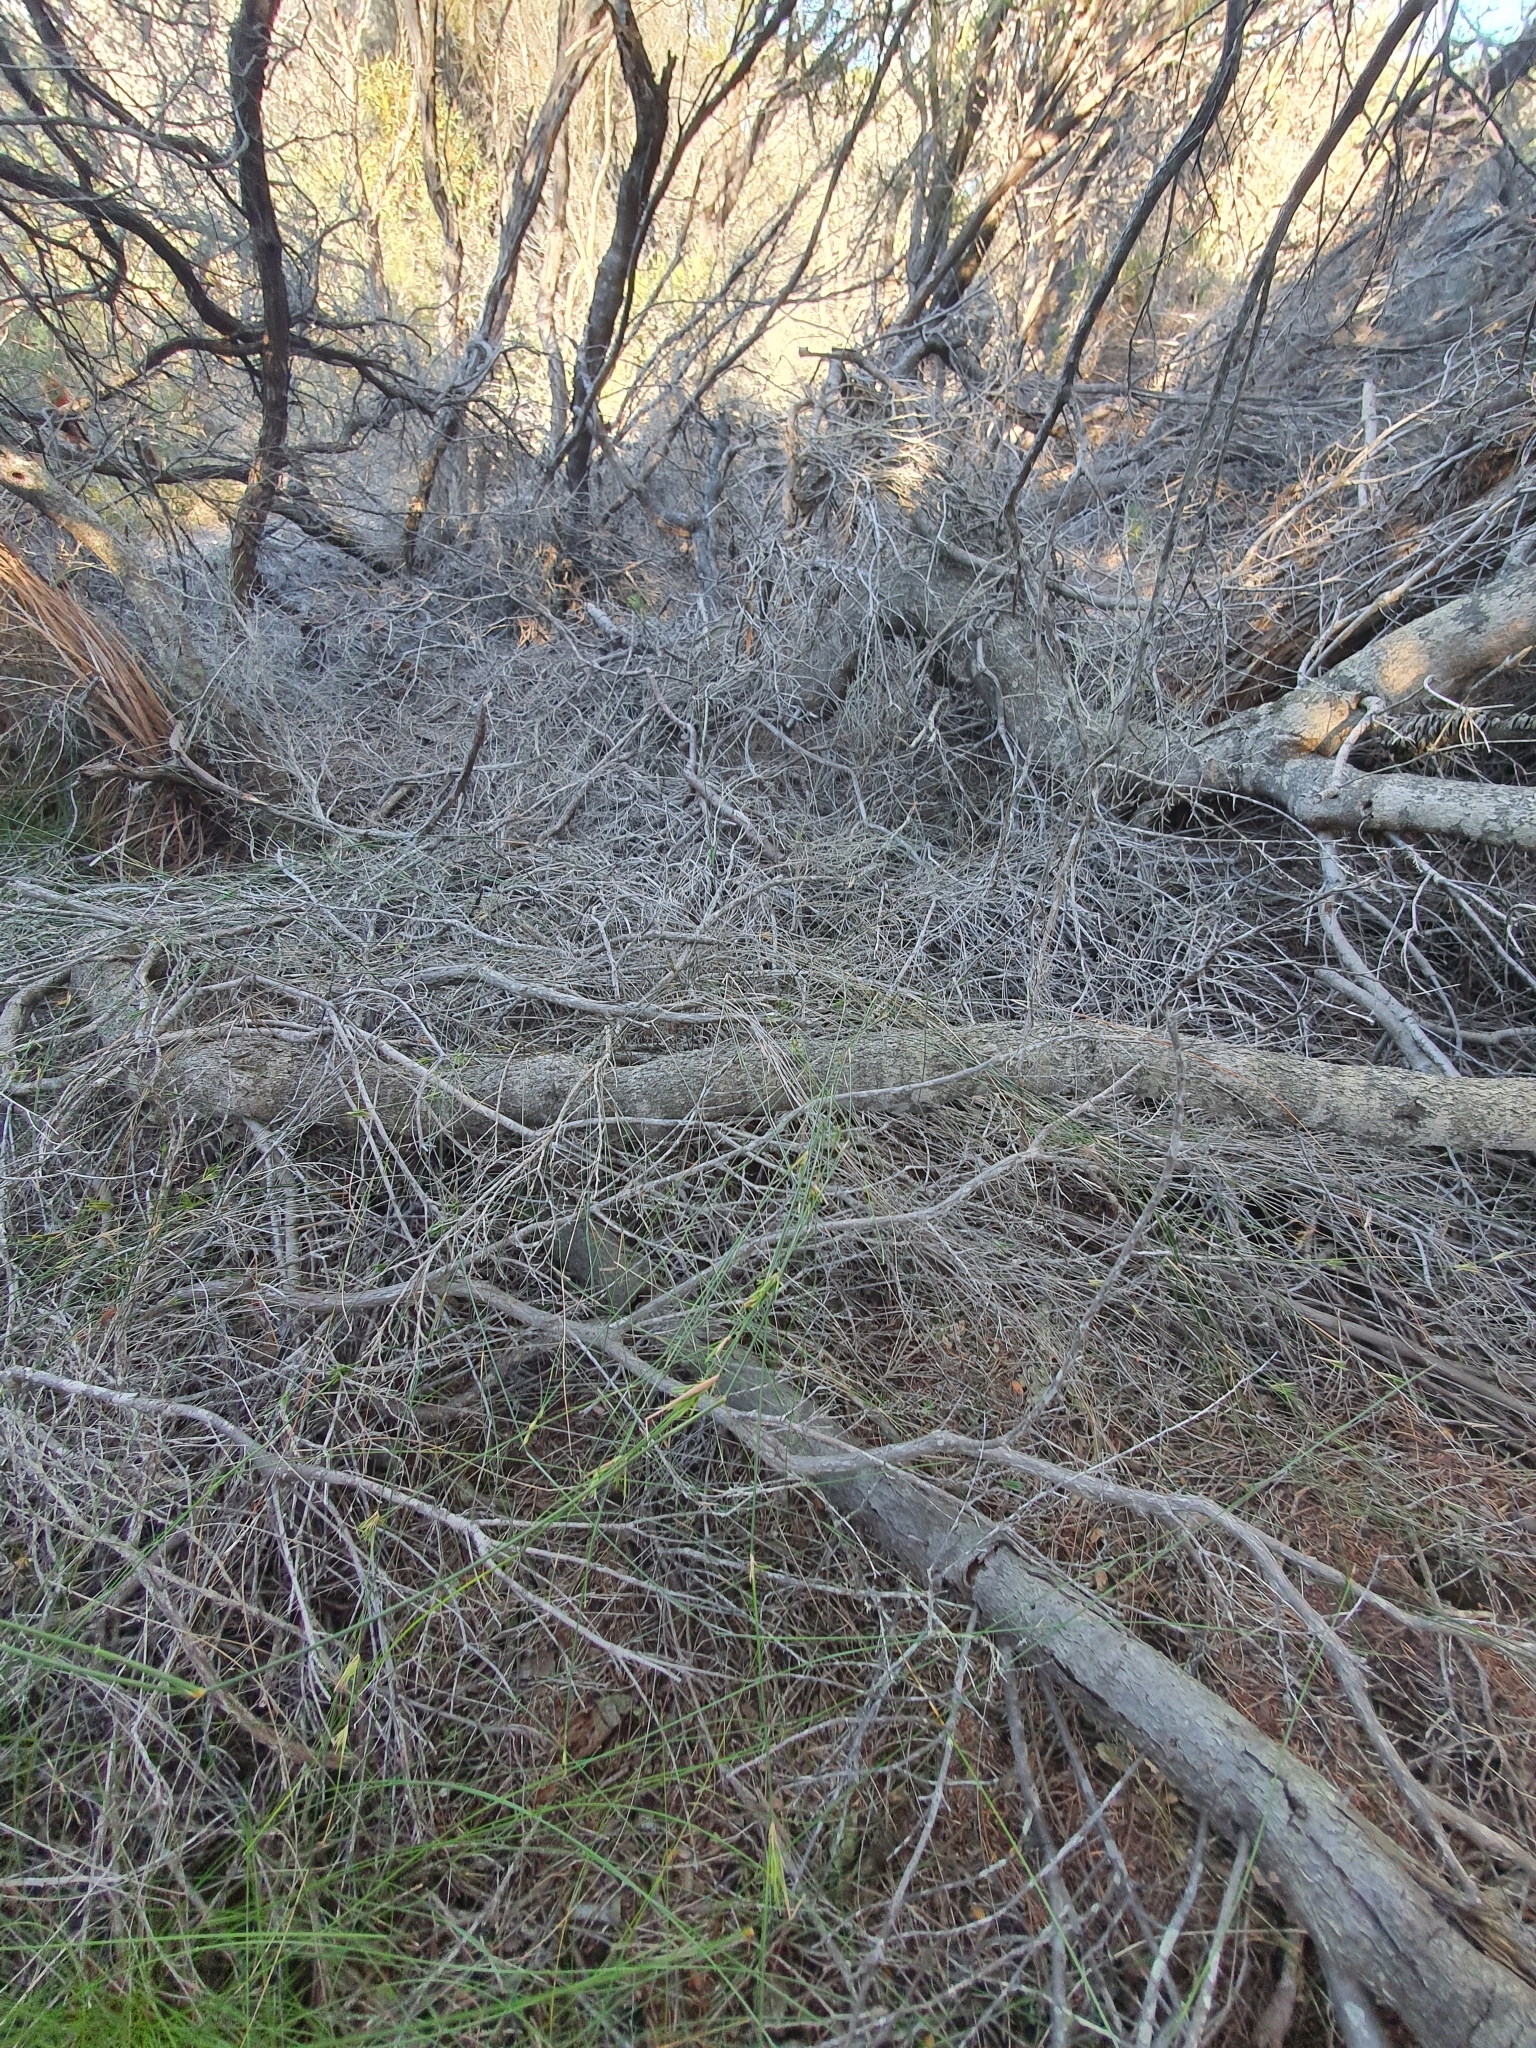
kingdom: Plantae
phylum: Tracheophyta
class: Liliopsida
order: Poales
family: Poaceae
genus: Entolasia
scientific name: Entolasia stricta
